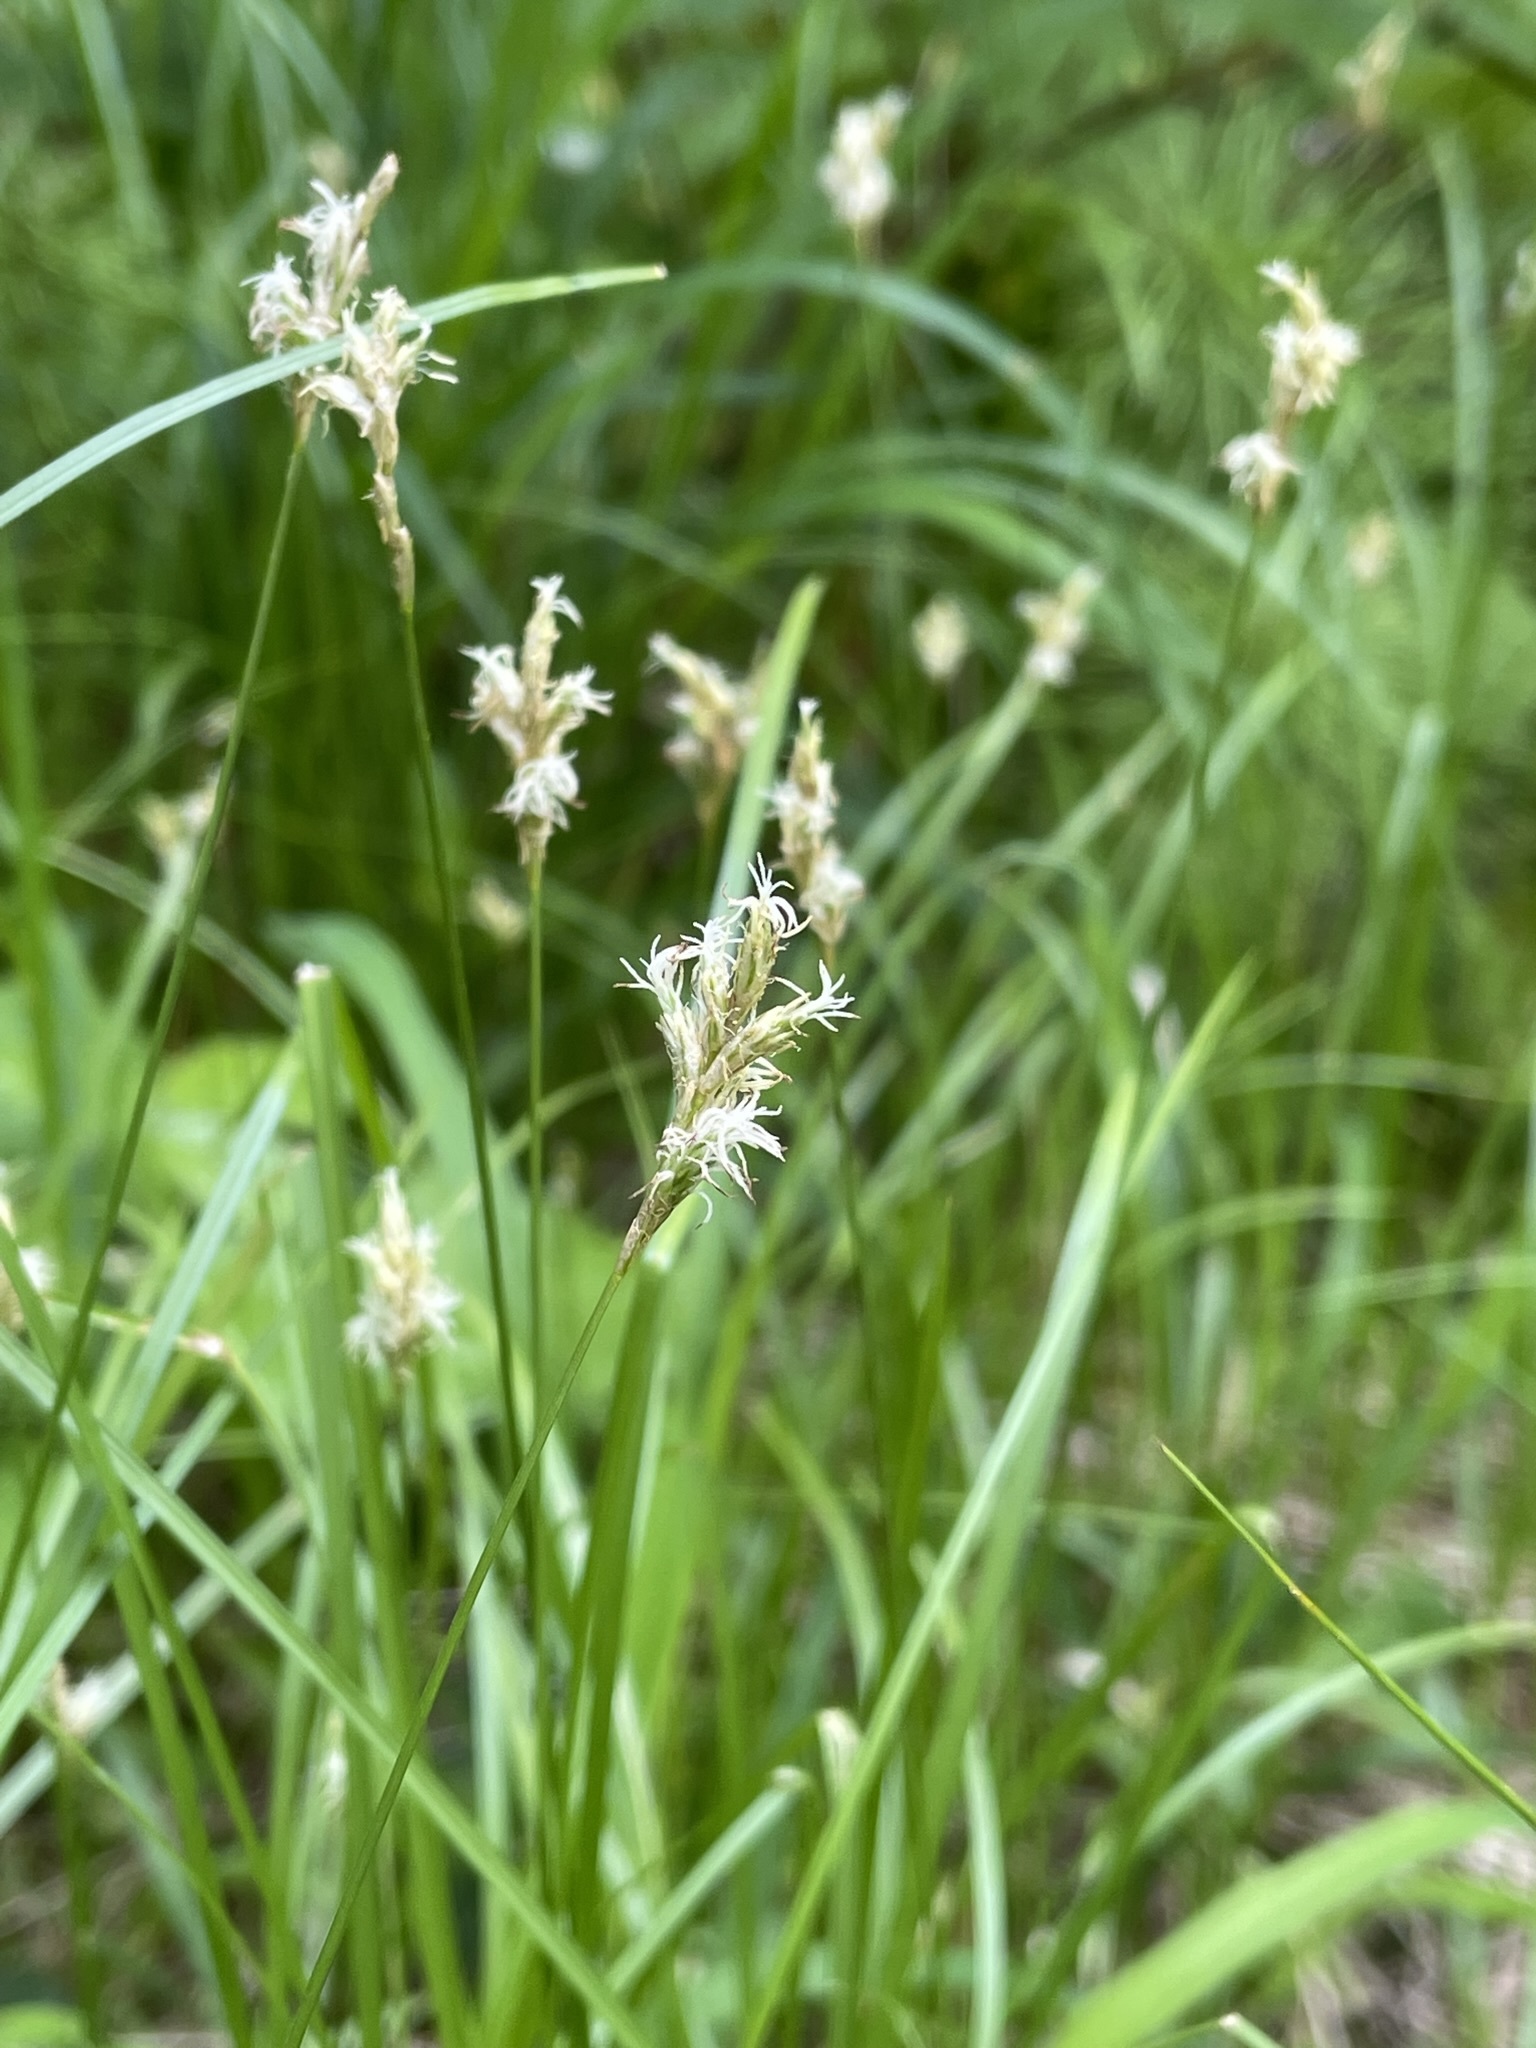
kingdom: Plantae
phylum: Tracheophyta
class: Liliopsida
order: Poales
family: Cyperaceae
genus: Carex
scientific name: Carex brizoides
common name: Quaking-grass sedge
